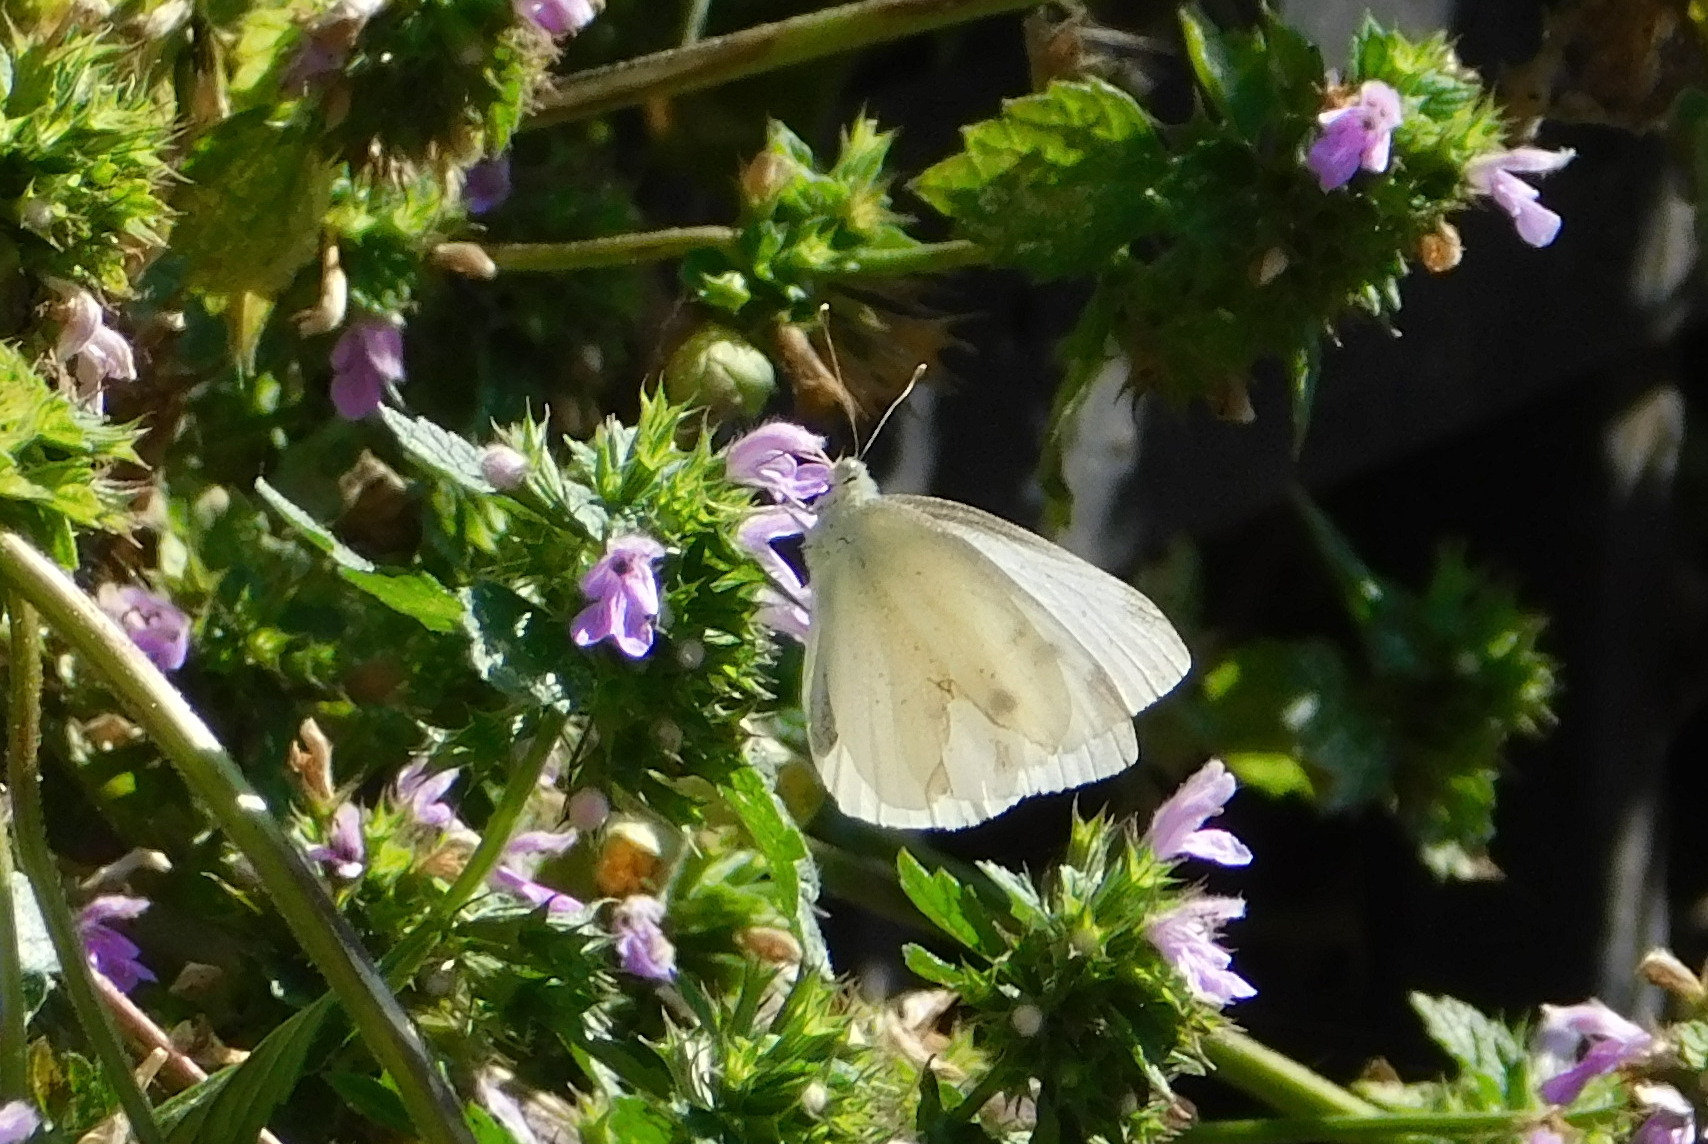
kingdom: Animalia
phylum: Arthropoda
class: Insecta
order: Lepidoptera
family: Pieridae
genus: Pieris
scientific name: Pieris rapae
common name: Small white
